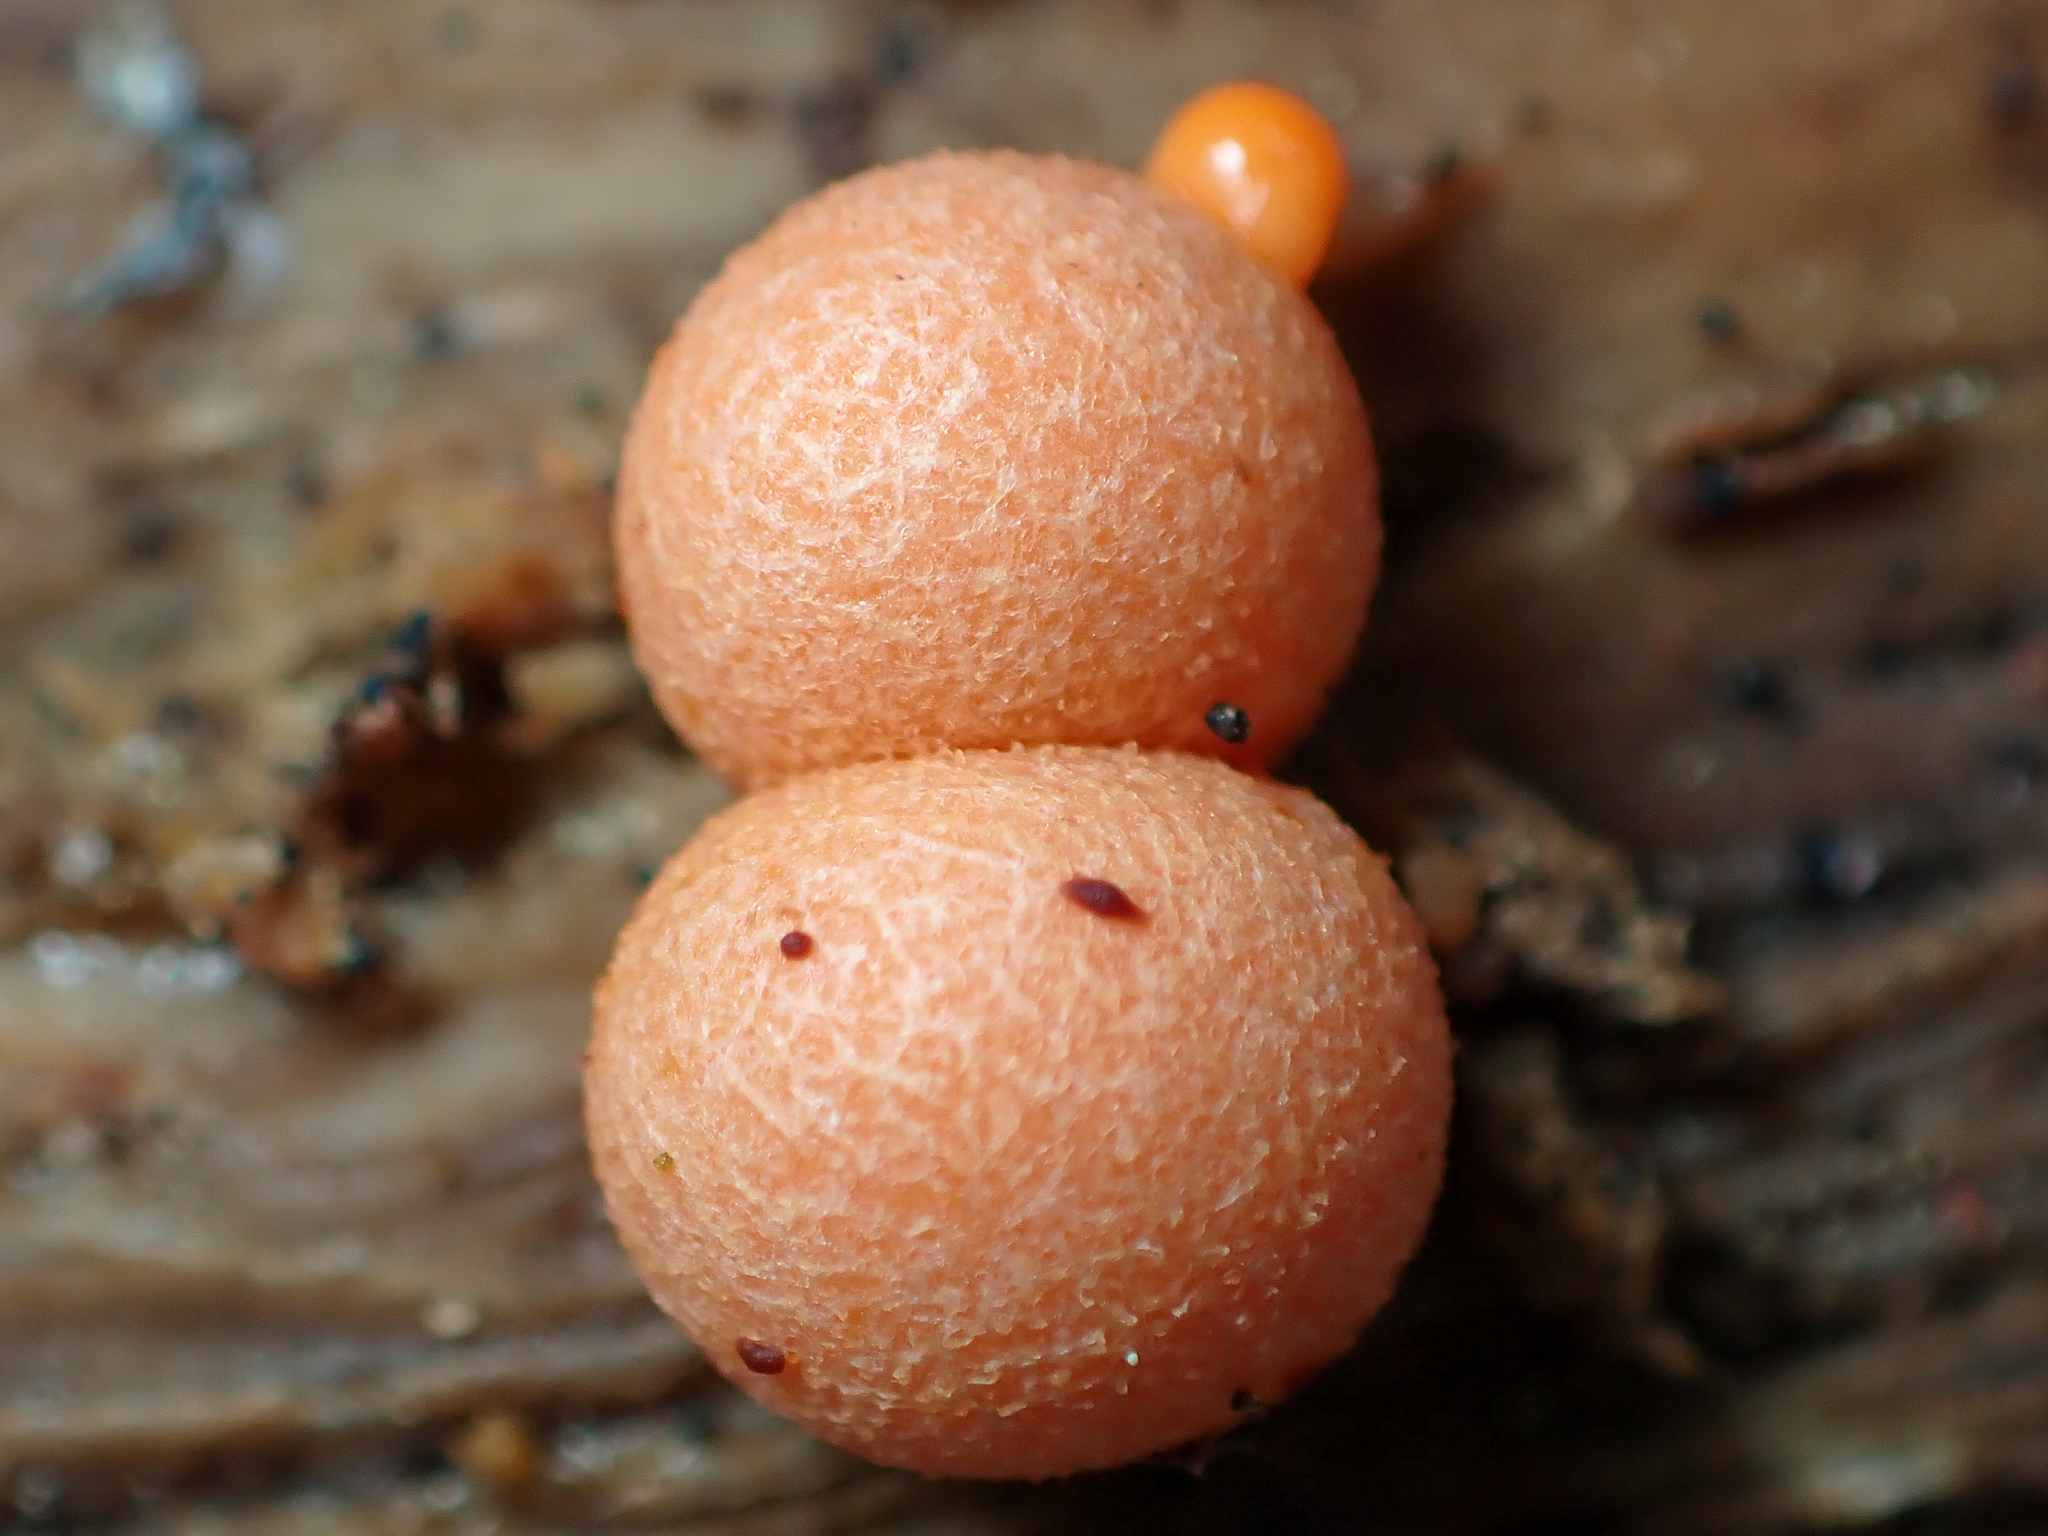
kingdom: Protozoa
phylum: Mycetozoa
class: Myxomycetes
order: Cribrariales
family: Tubiferaceae
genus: Lycogala
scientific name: Lycogala epidendrum
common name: Wolf's milk
